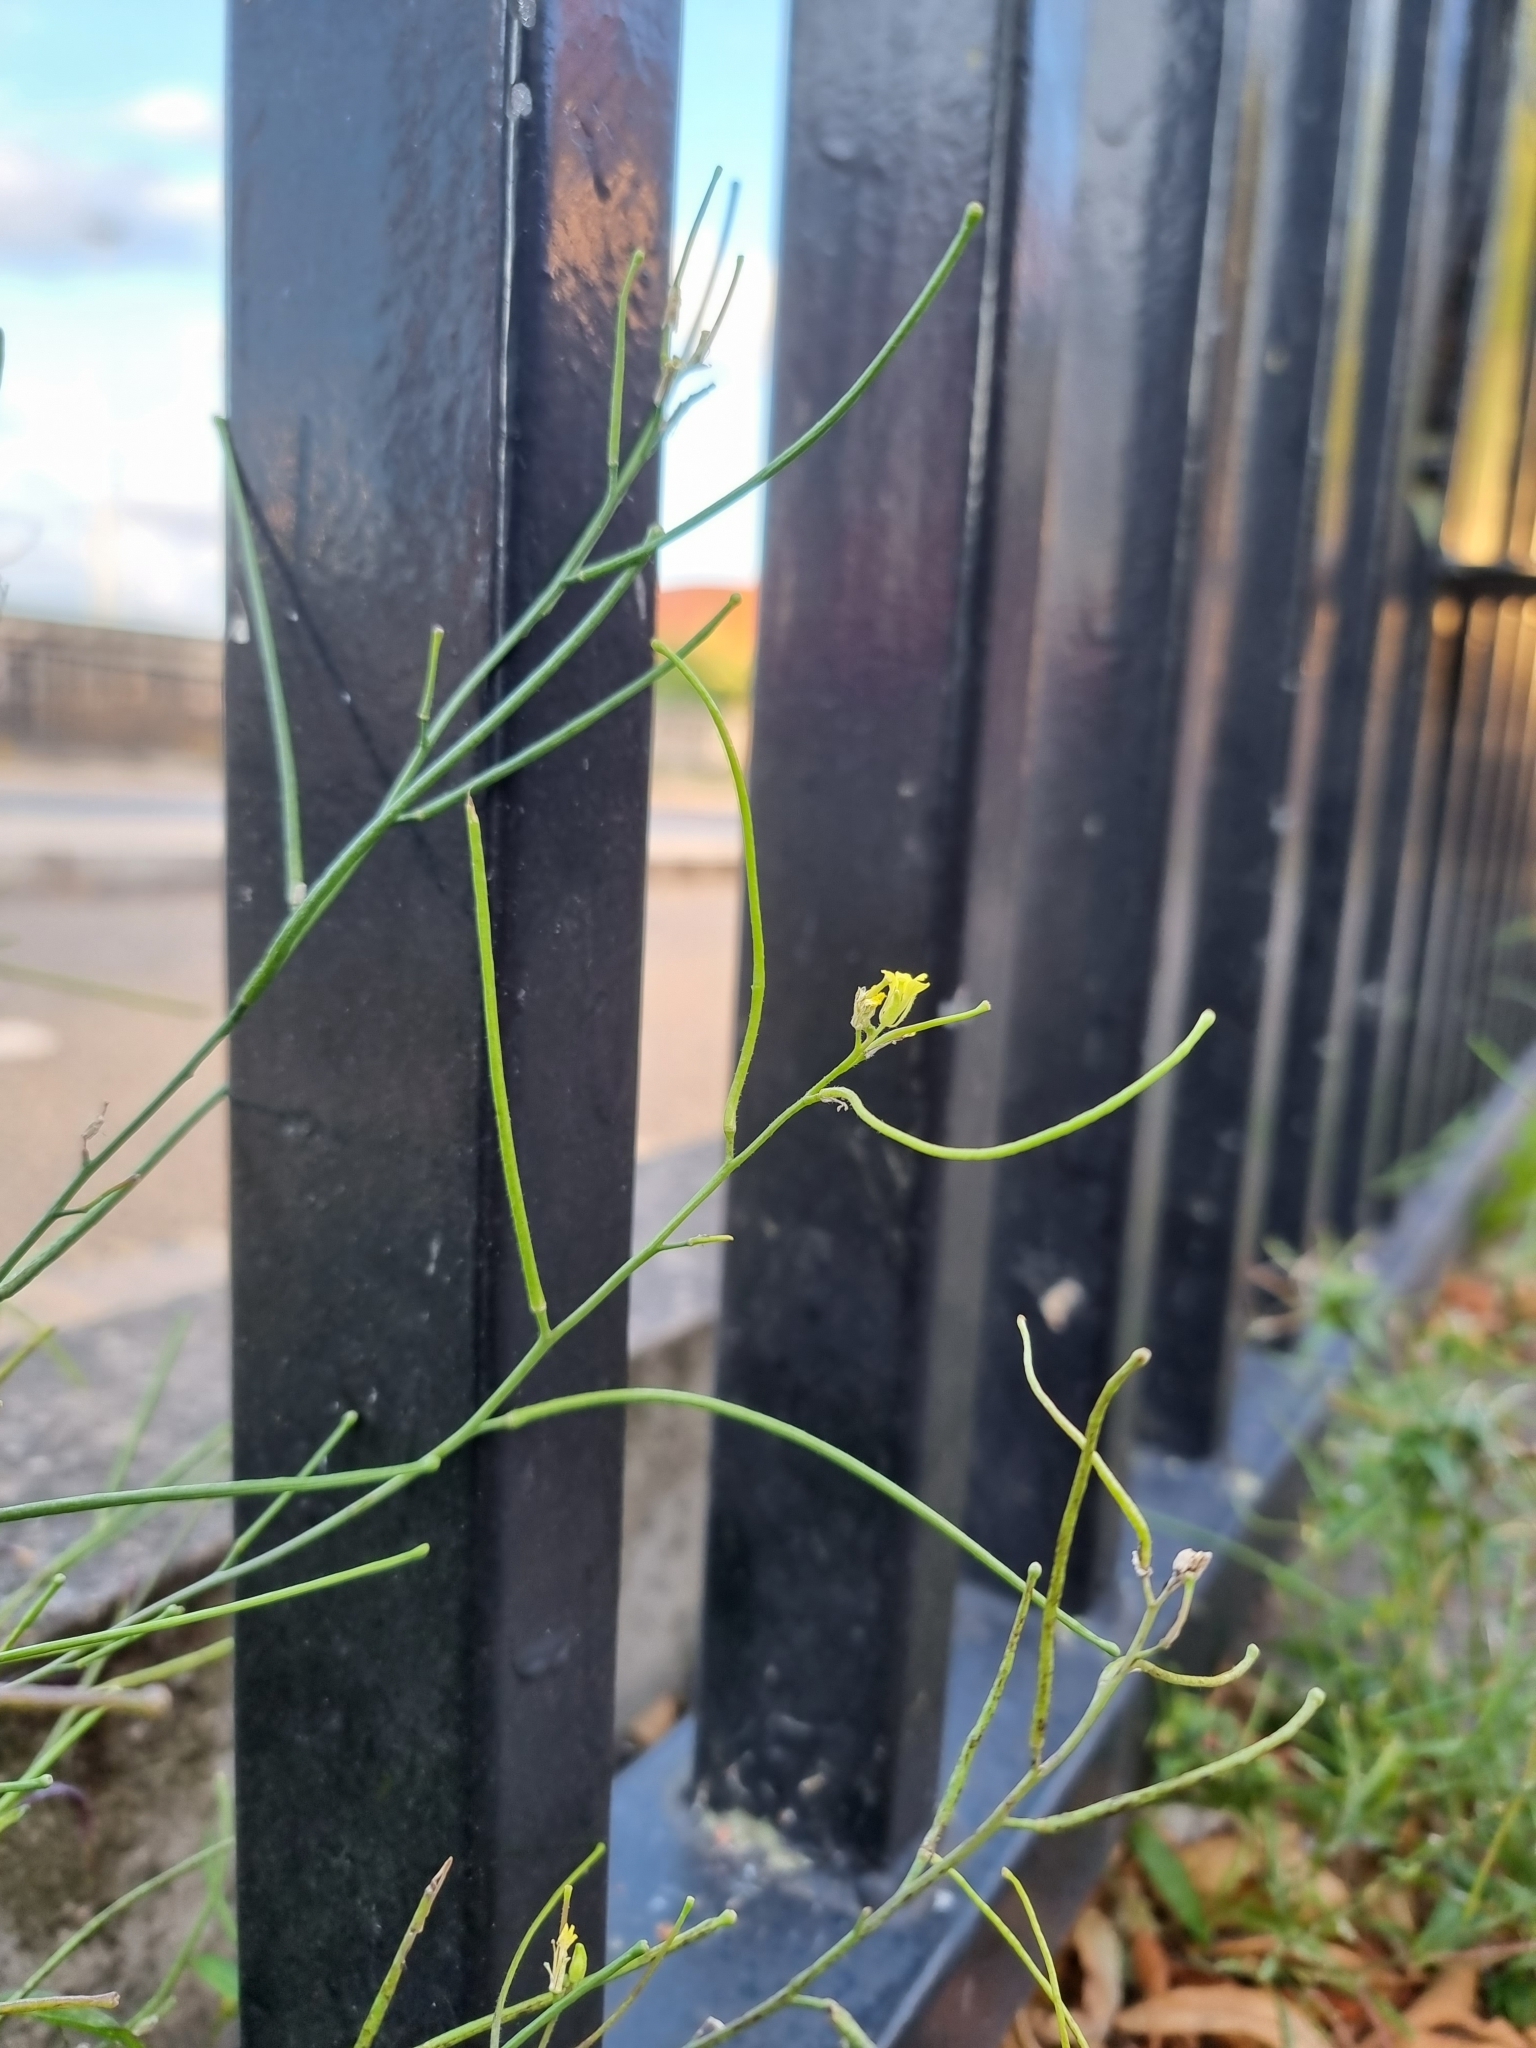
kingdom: Plantae
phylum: Tracheophyta
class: Magnoliopsida
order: Brassicales
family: Brassicaceae
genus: Sisymbrium
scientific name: Sisymbrium orientale
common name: Eastern rocket
